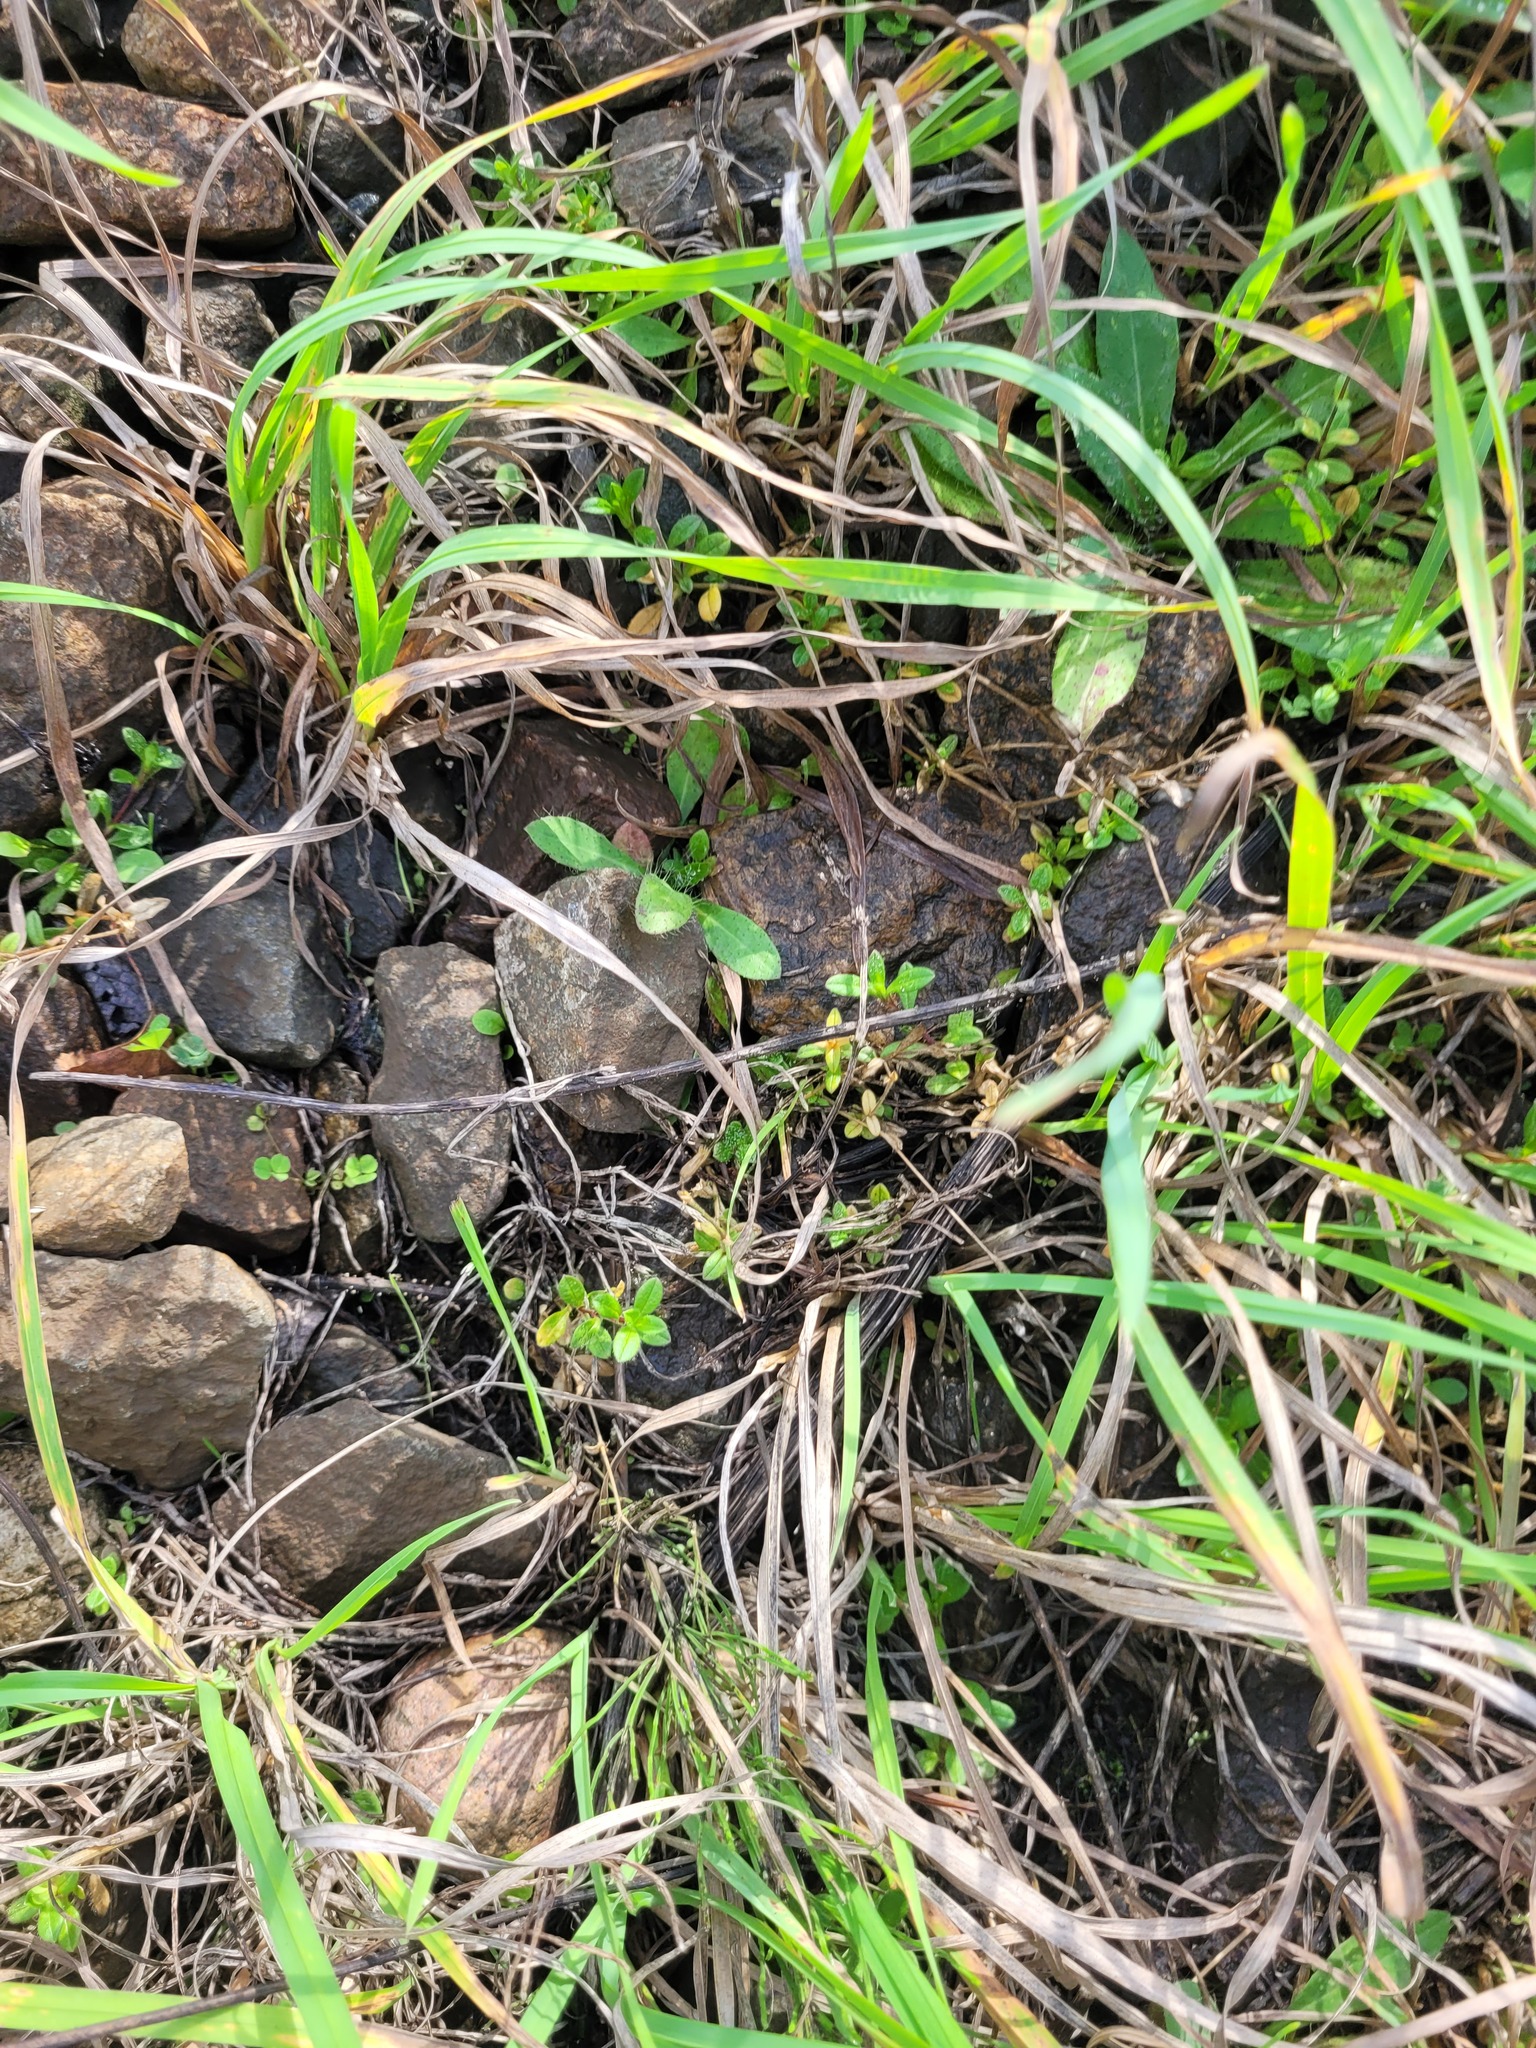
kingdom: Plantae
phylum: Tracheophyta
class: Magnoliopsida
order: Caryophyllales
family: Caryophyllaceae
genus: Cerastium
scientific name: Cerastium holosteoides
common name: Big chickweed
